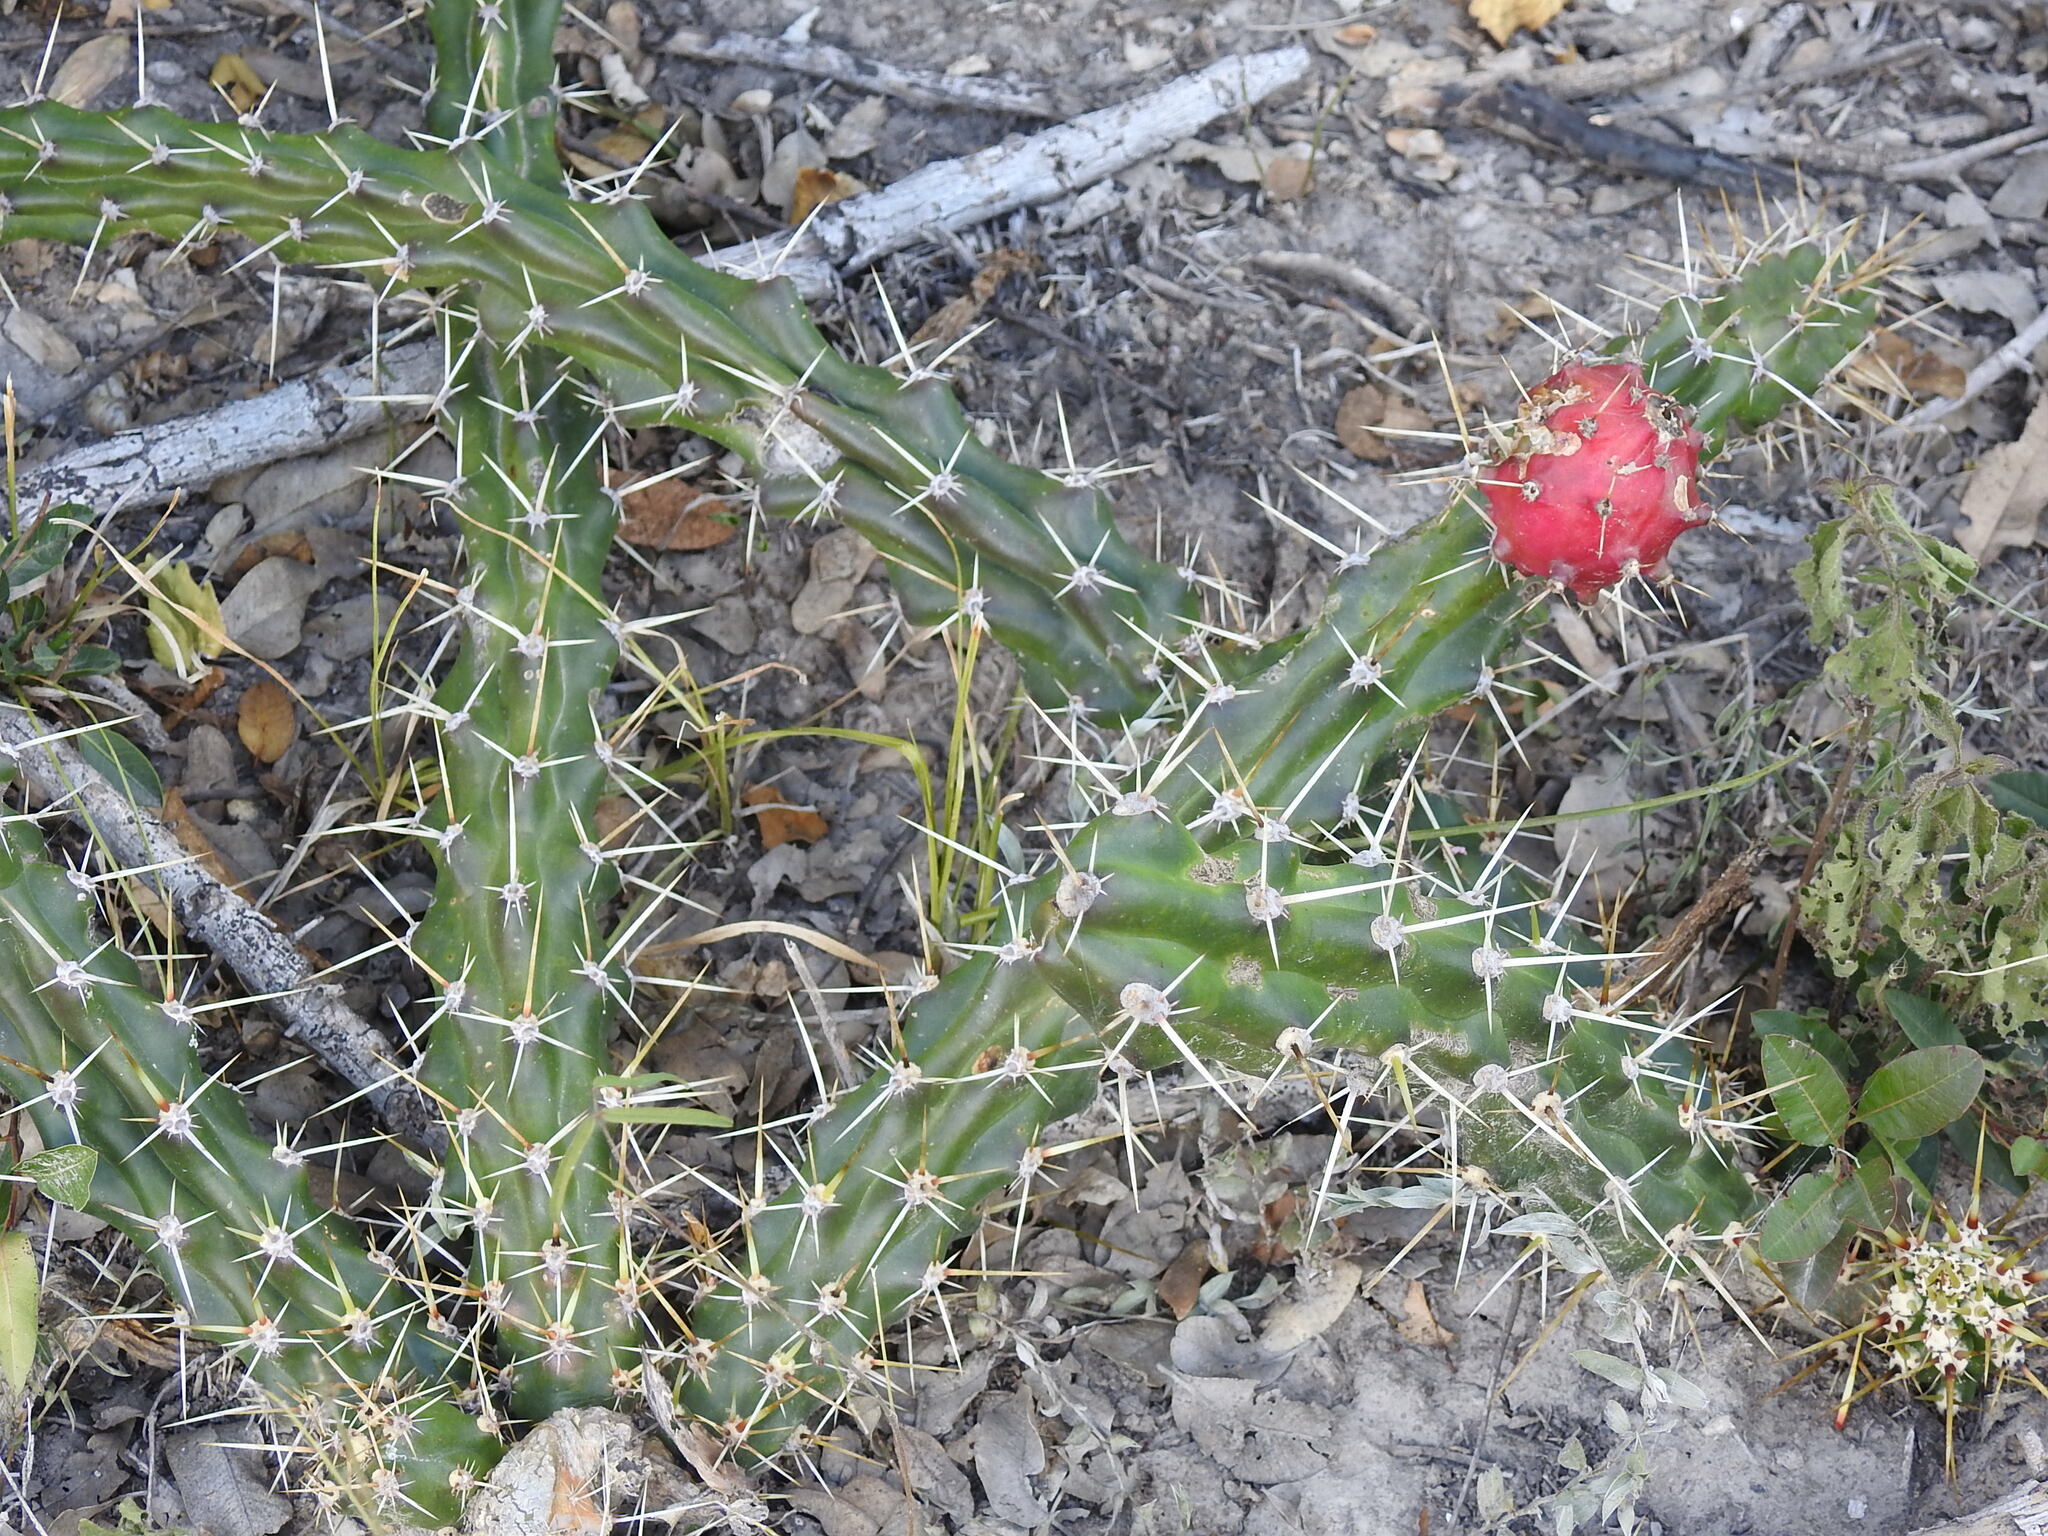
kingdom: Plantae
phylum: Tracheophyta
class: Magnoliopsida
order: Caryophyllales
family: Cactaceae
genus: Harrisia
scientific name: Harrisia martinii
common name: Moon cactus
